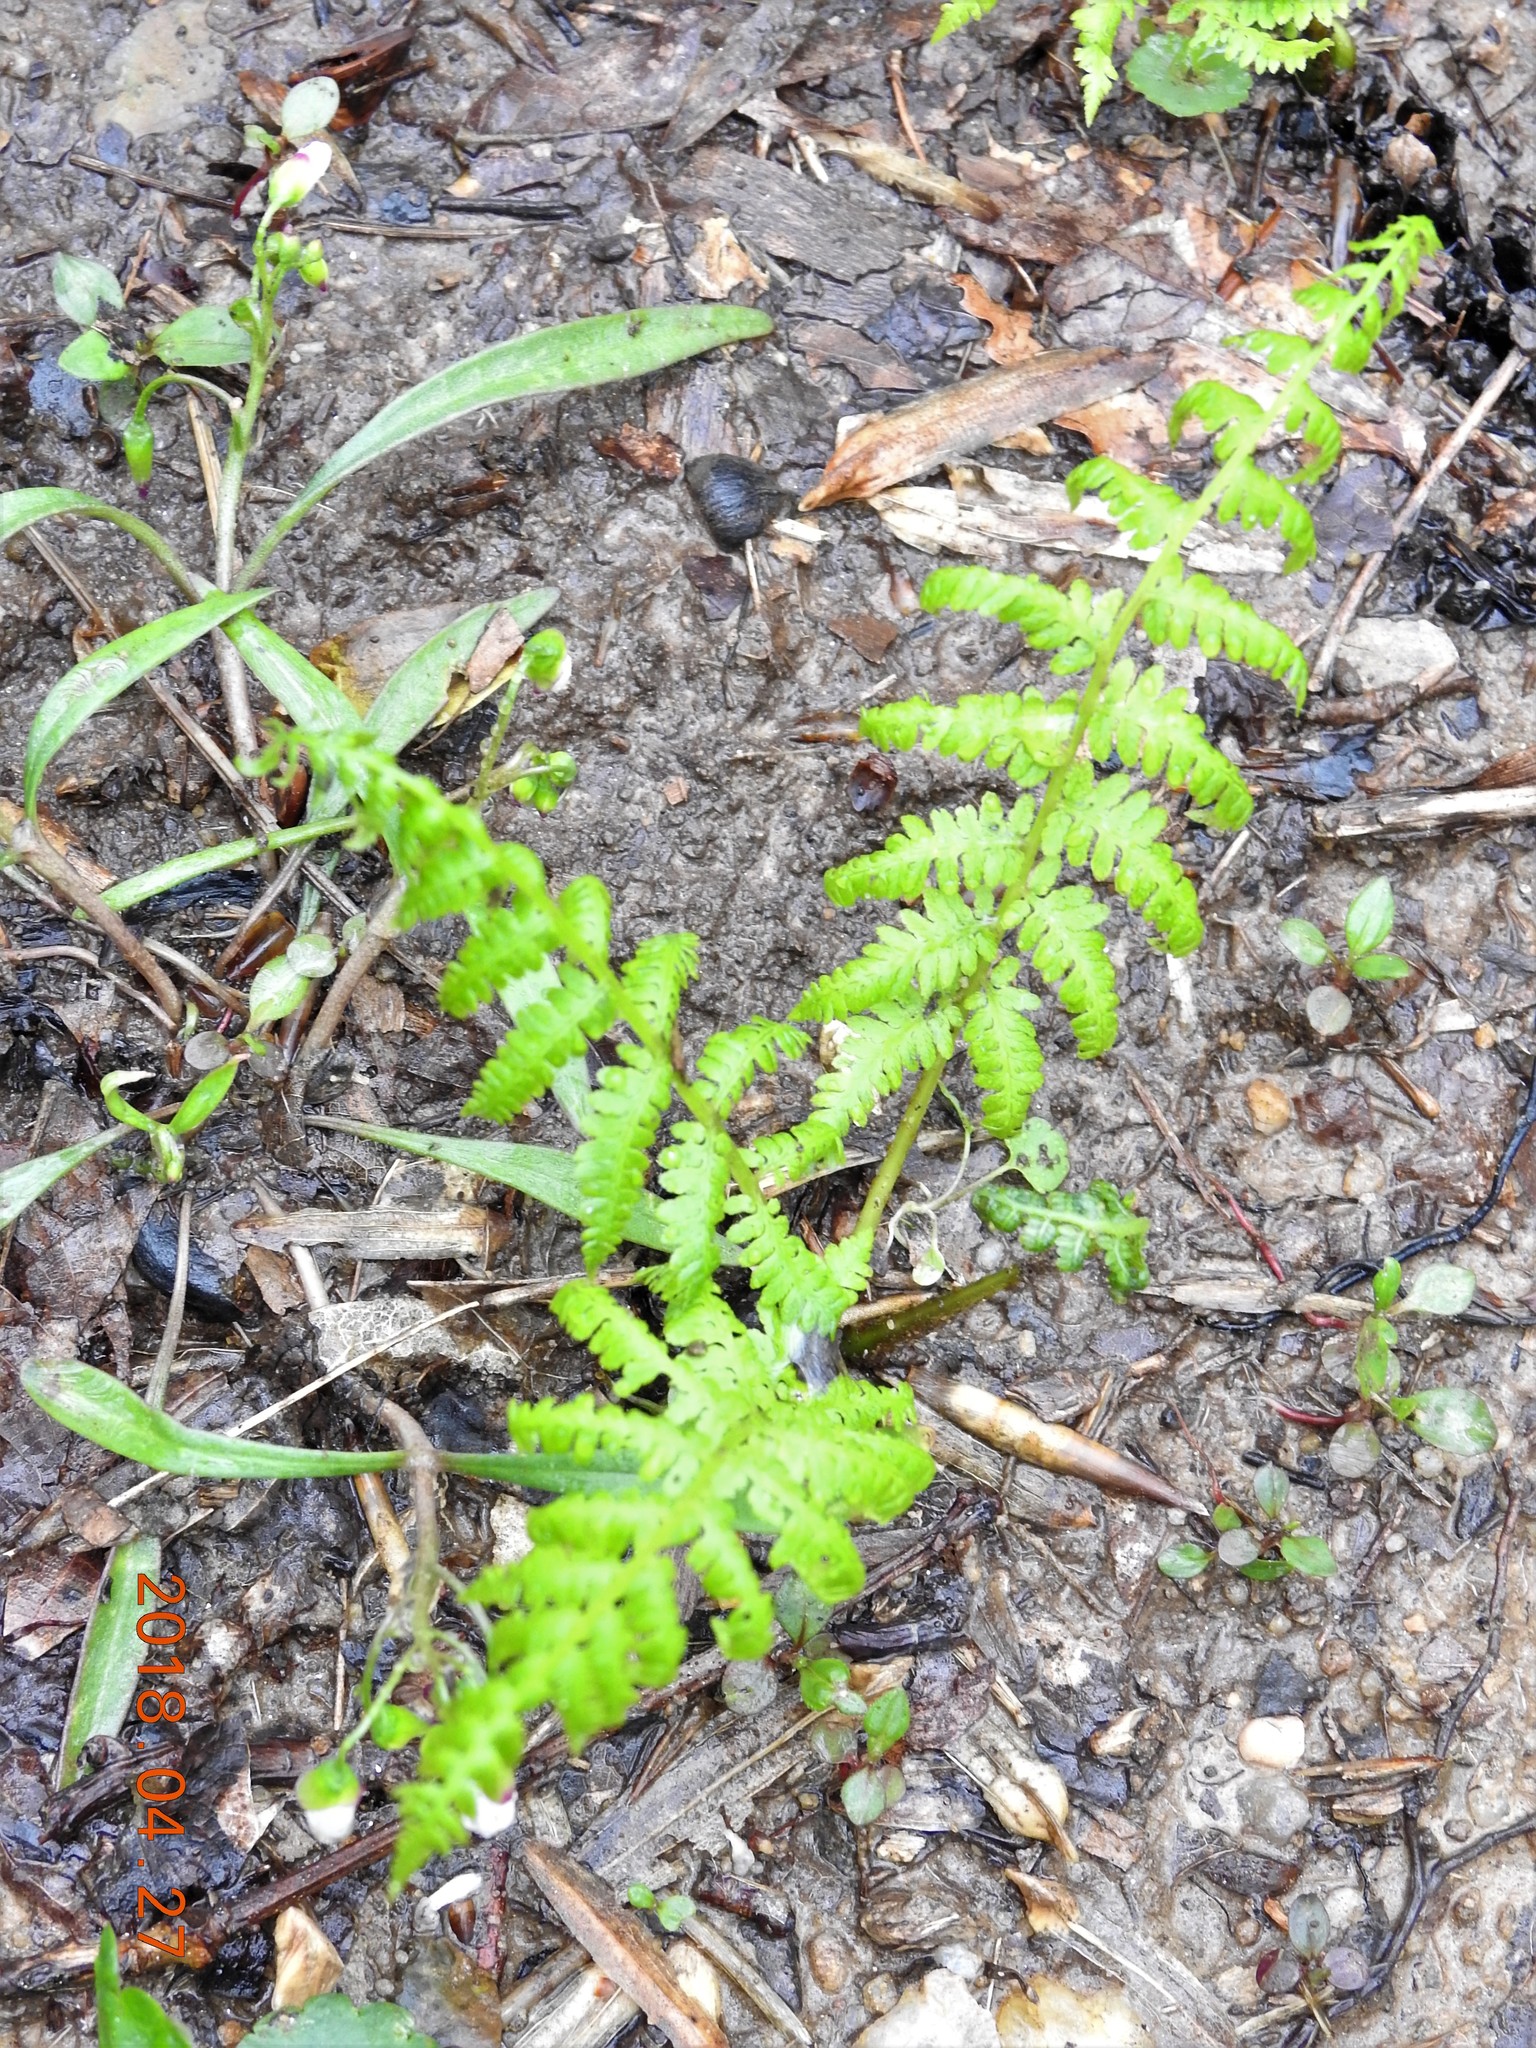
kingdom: Plantae
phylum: Tracheophyta
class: Polypodiopsida
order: Polypodiales
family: Thelypteridaceae
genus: Amauropelta
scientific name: Amauropelta noveboracensis
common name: New york fern
